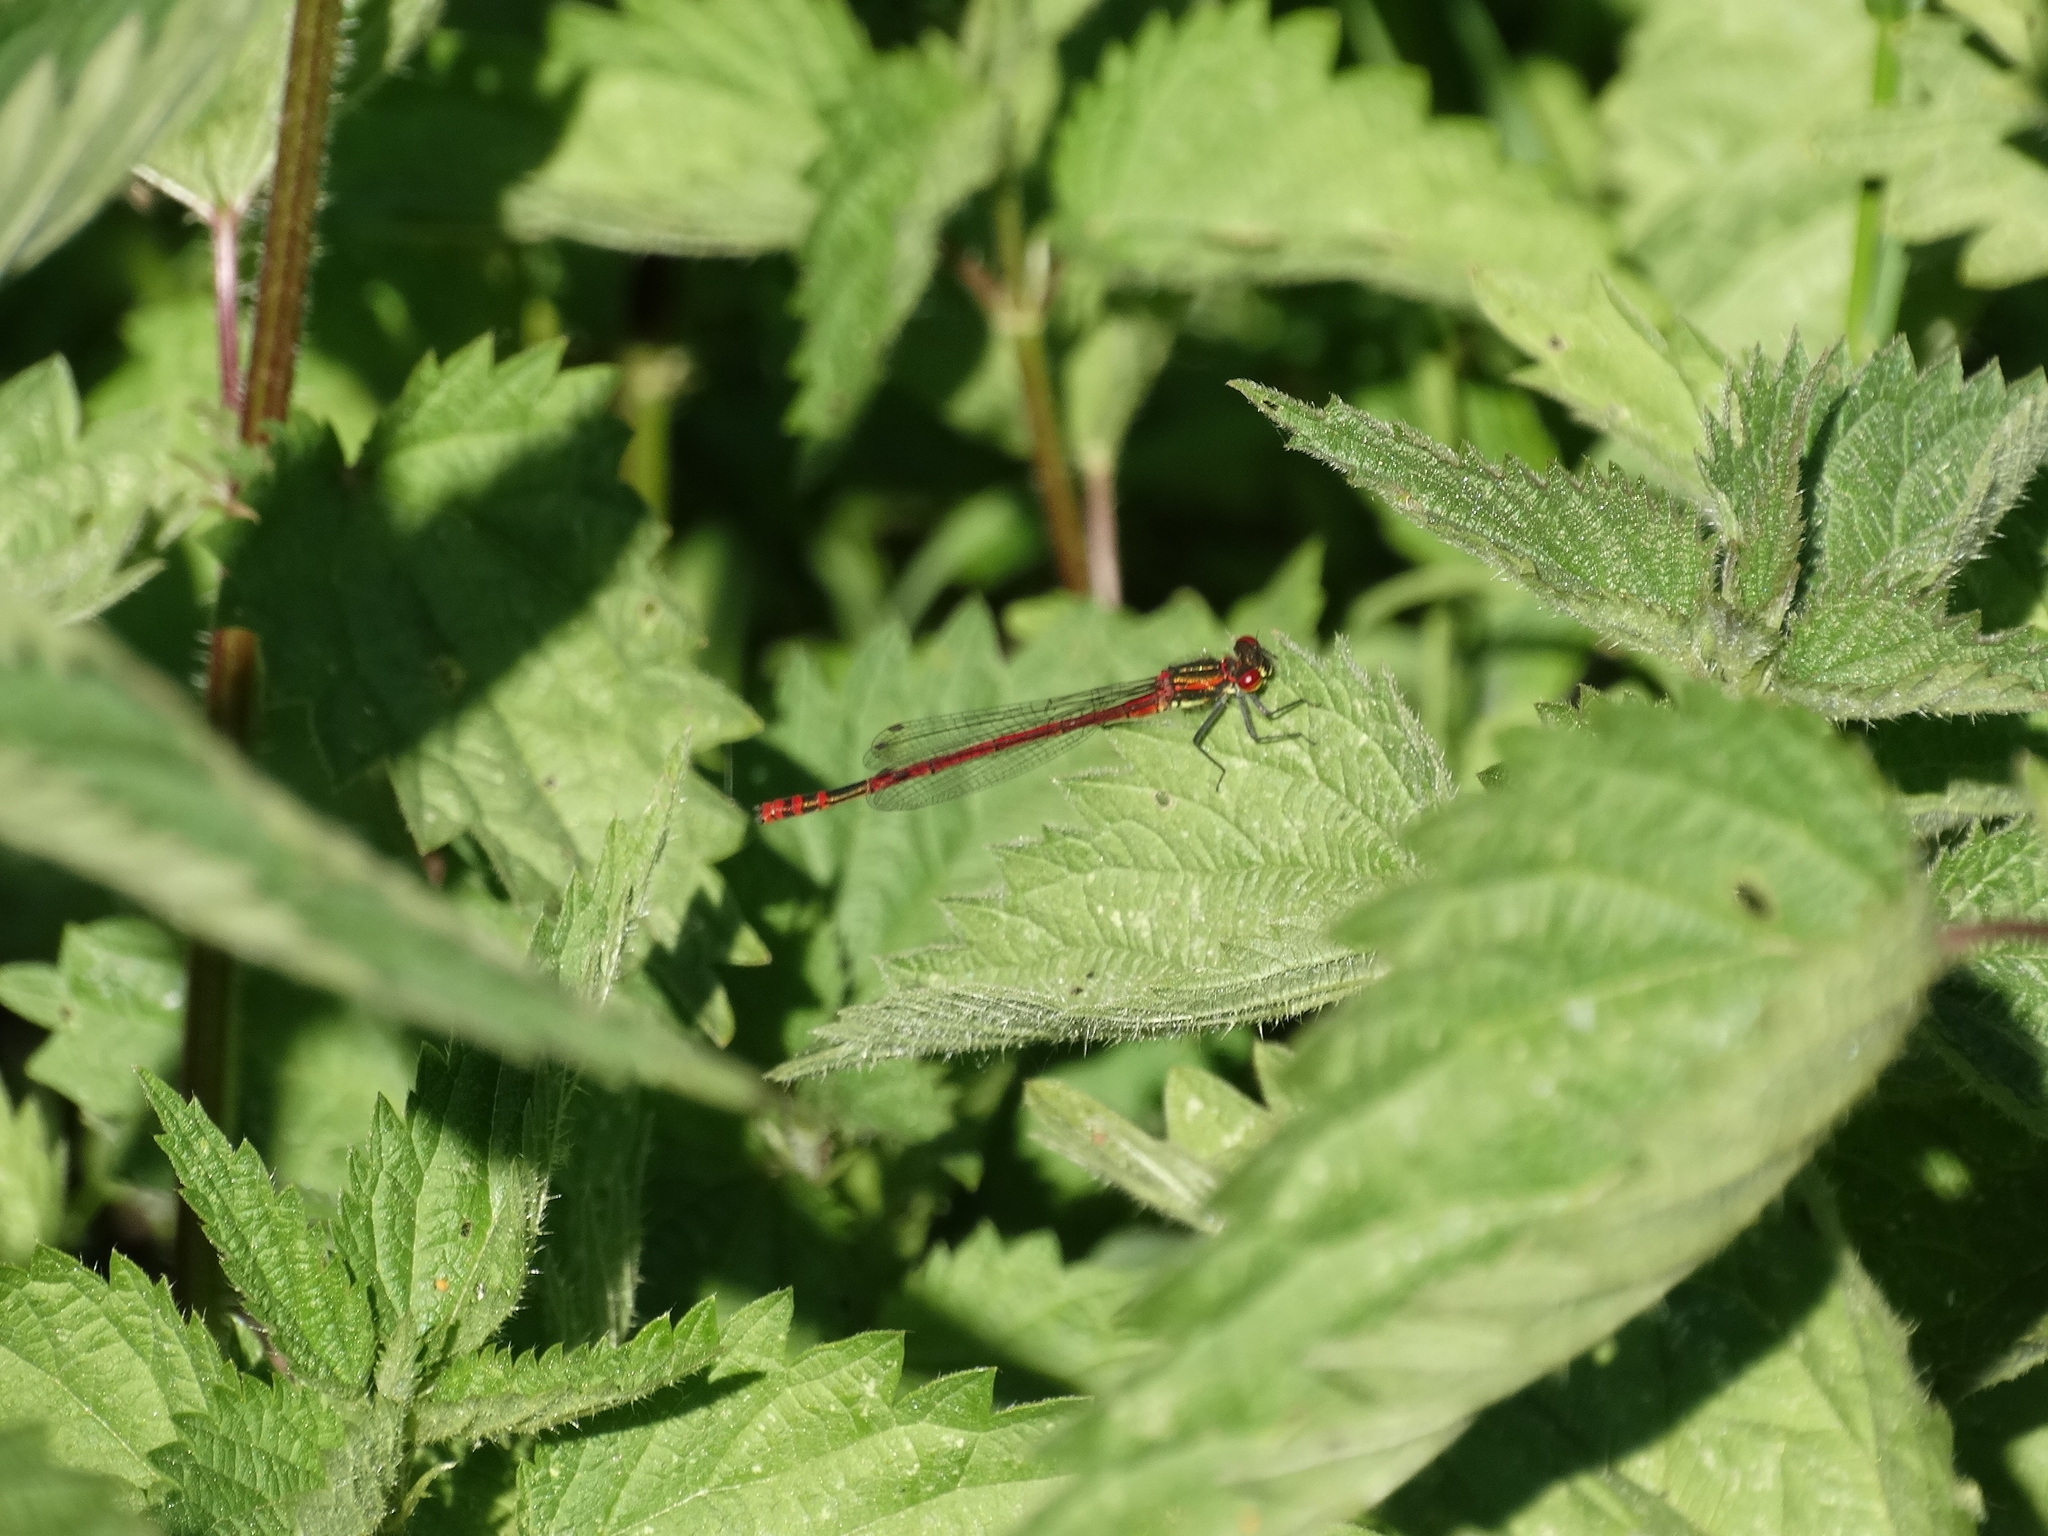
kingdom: Animalia
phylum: Arthropoda
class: Insecta
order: Odonata
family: Coenagrionidae
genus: Pyrrhosoma
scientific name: Pyrrhosoma nymphula
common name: Large red damsel
